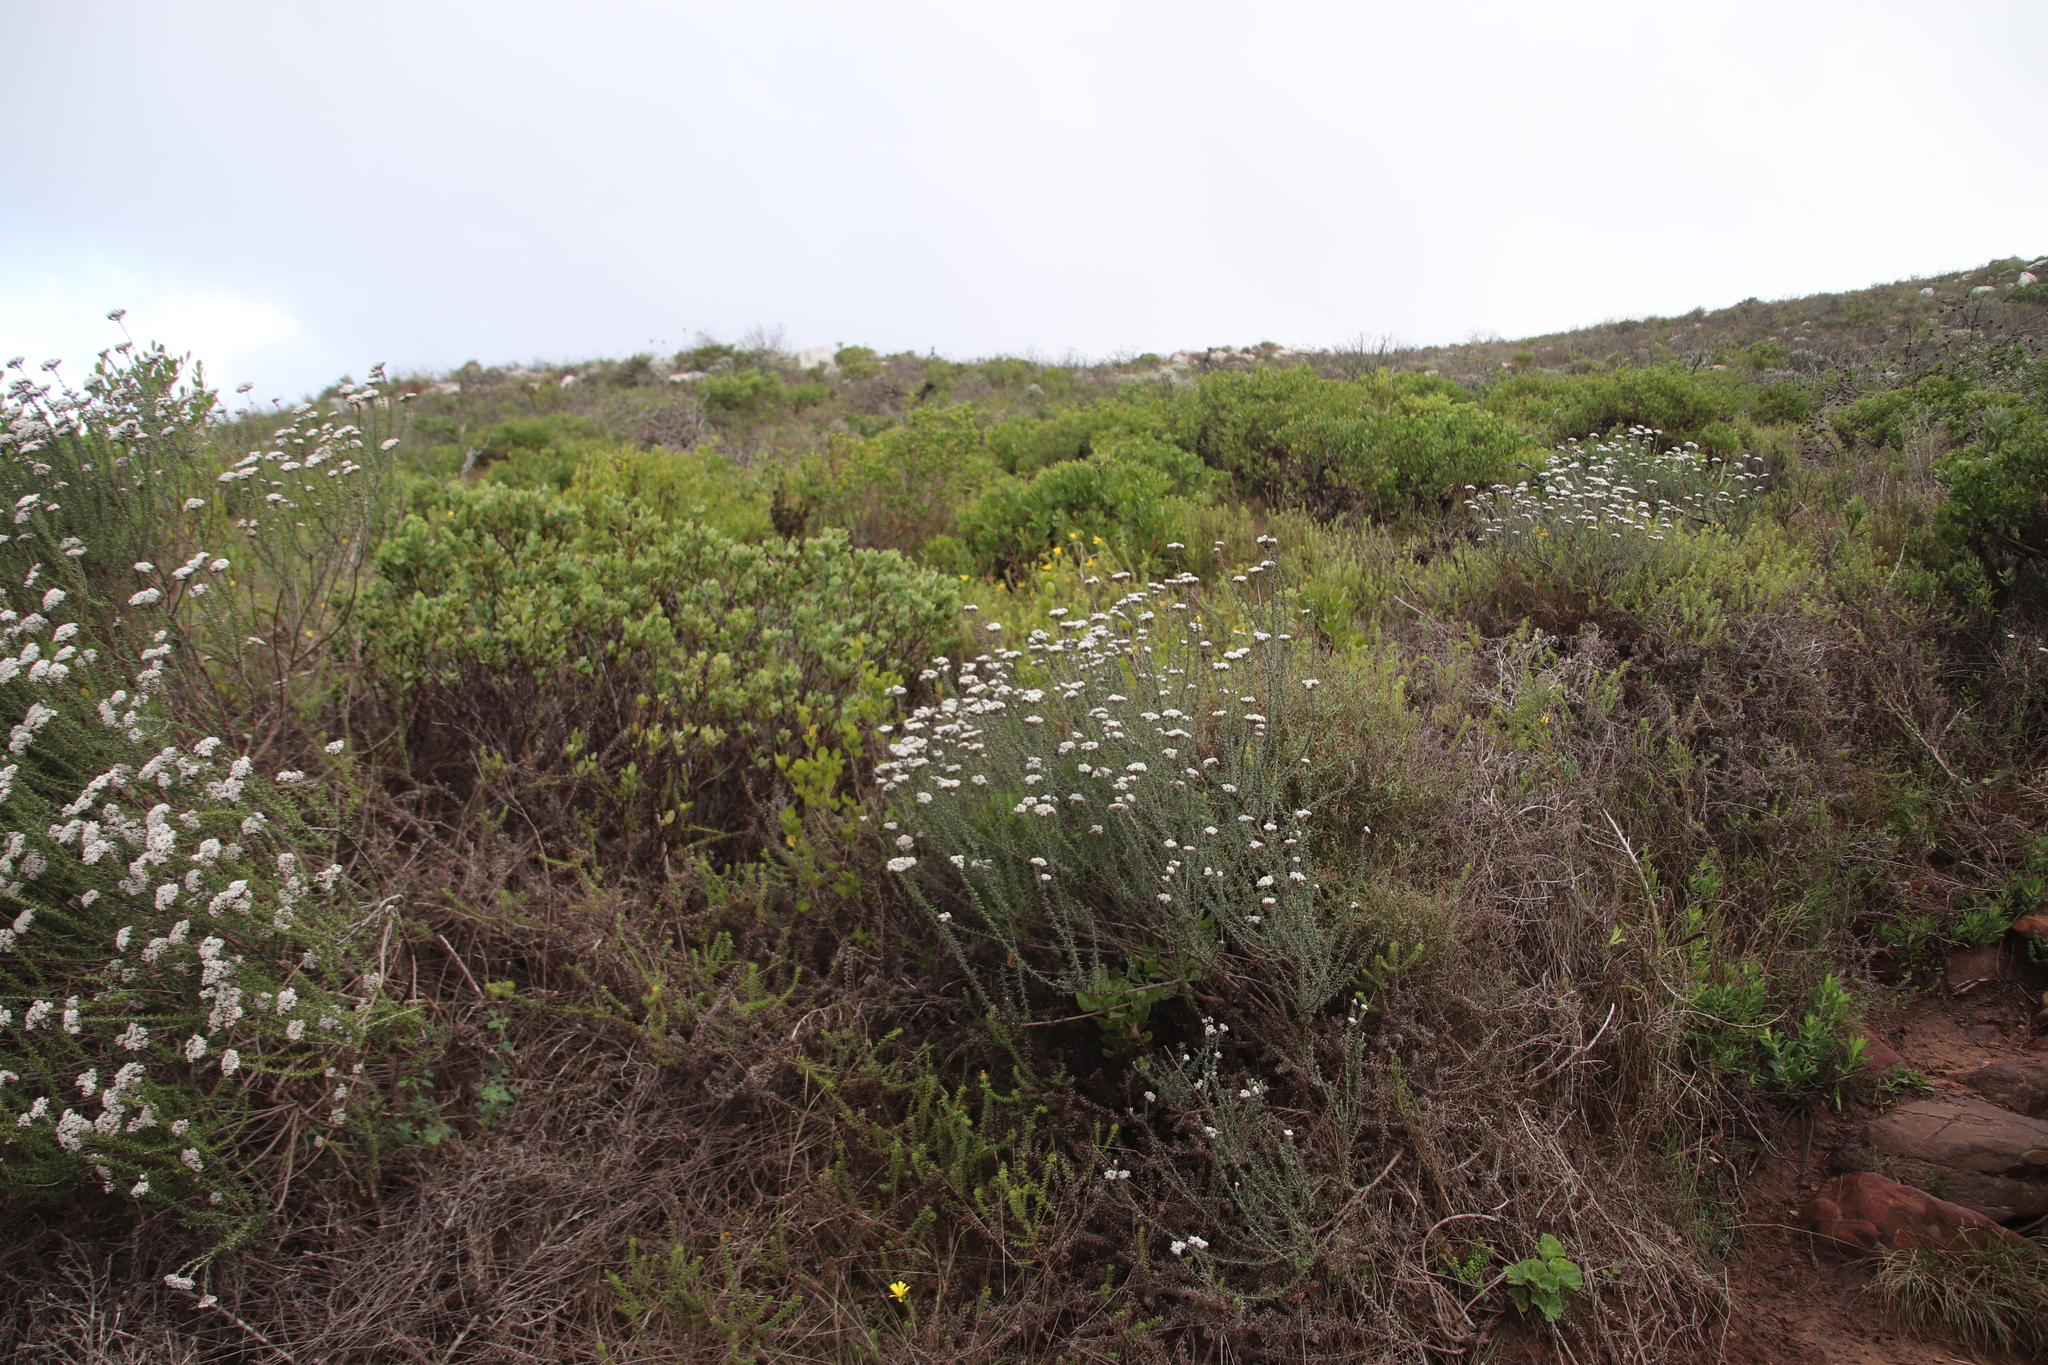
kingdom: Plantae
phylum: Tracheophyta
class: Magnoliopsida
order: Asterales
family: Asteraceae
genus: Metalasia
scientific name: Metalasia densa
